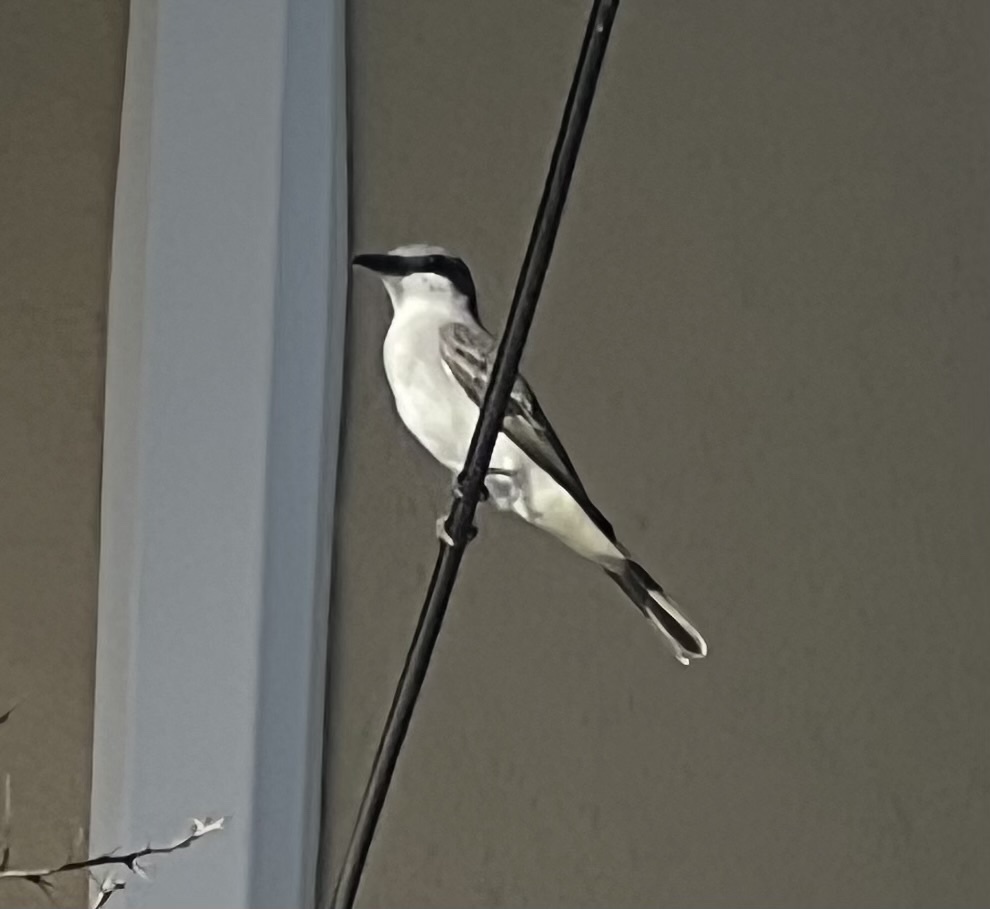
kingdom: Animalia
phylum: Chordata
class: Aves
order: Passeriformes
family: Tyrannidae
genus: Tyrannus
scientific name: Tyrannus dominicensis
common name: Gray kingbird
